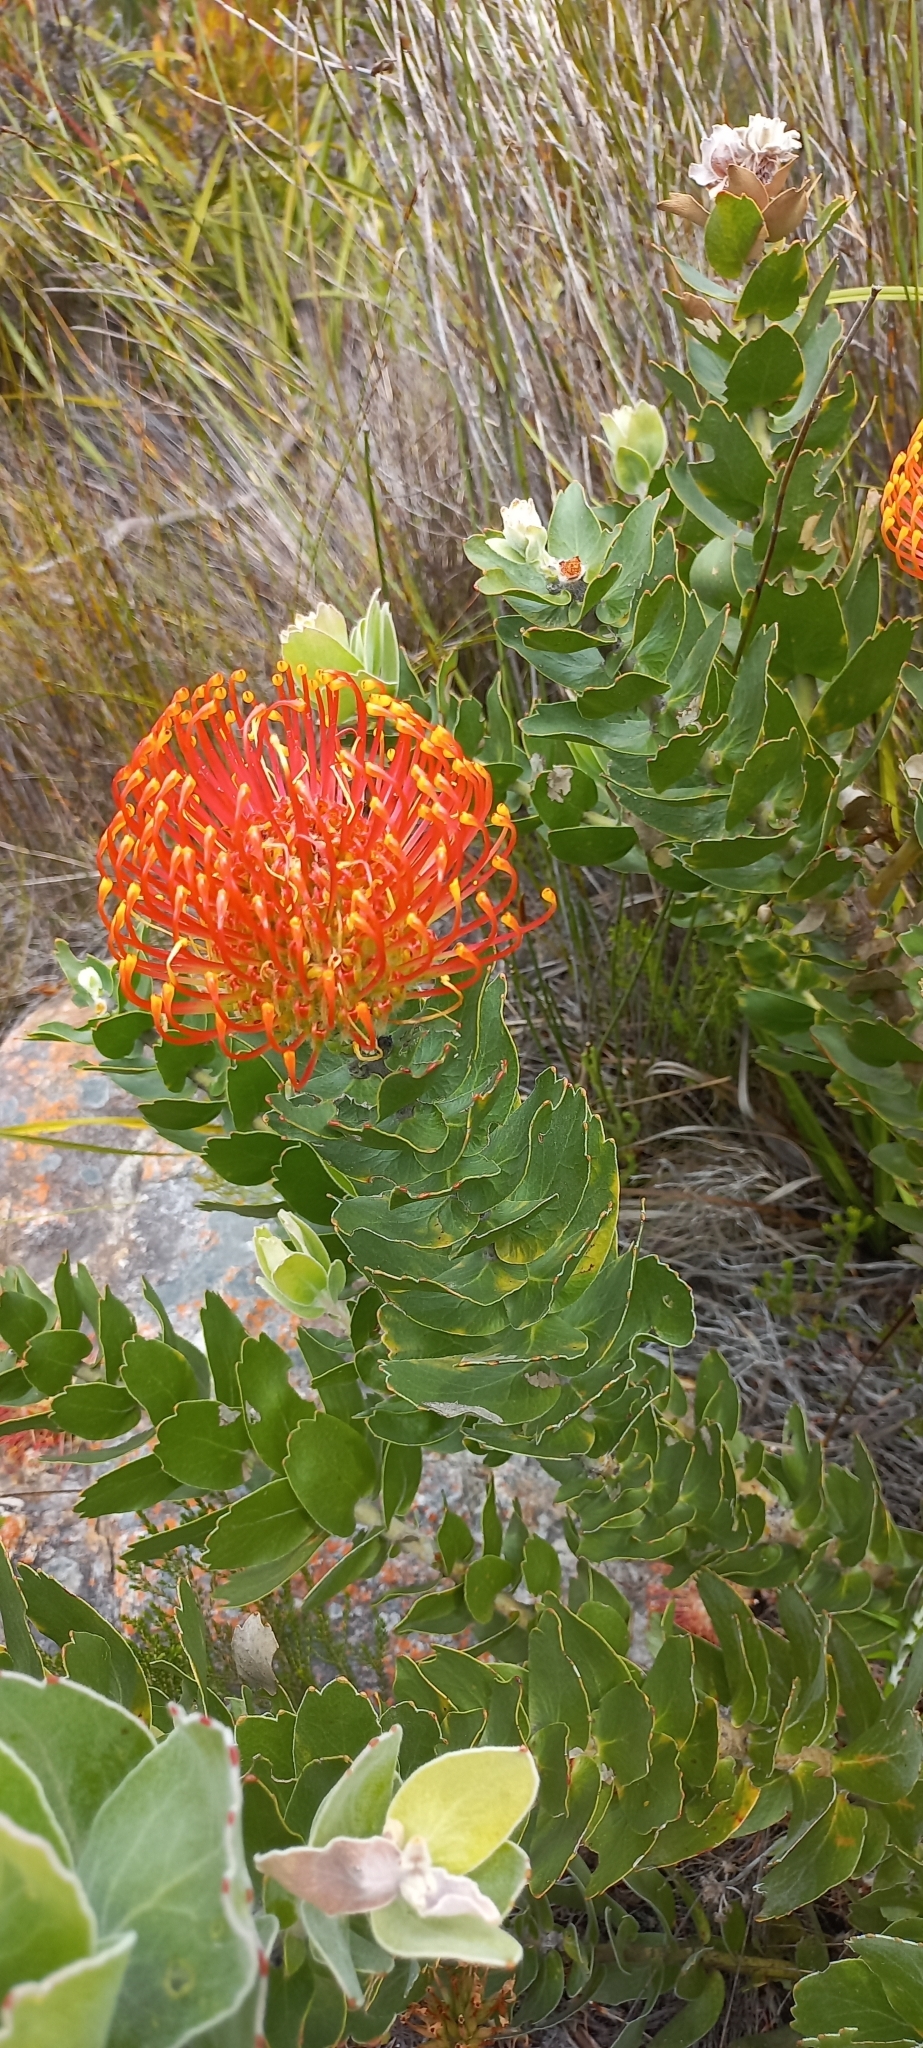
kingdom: Plantae
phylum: Tracheophyta
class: Magnoliopsida
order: Proteales
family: Proteaceae
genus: Leucospermum
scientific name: Leucospermum patersonii
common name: False tree pincushion
